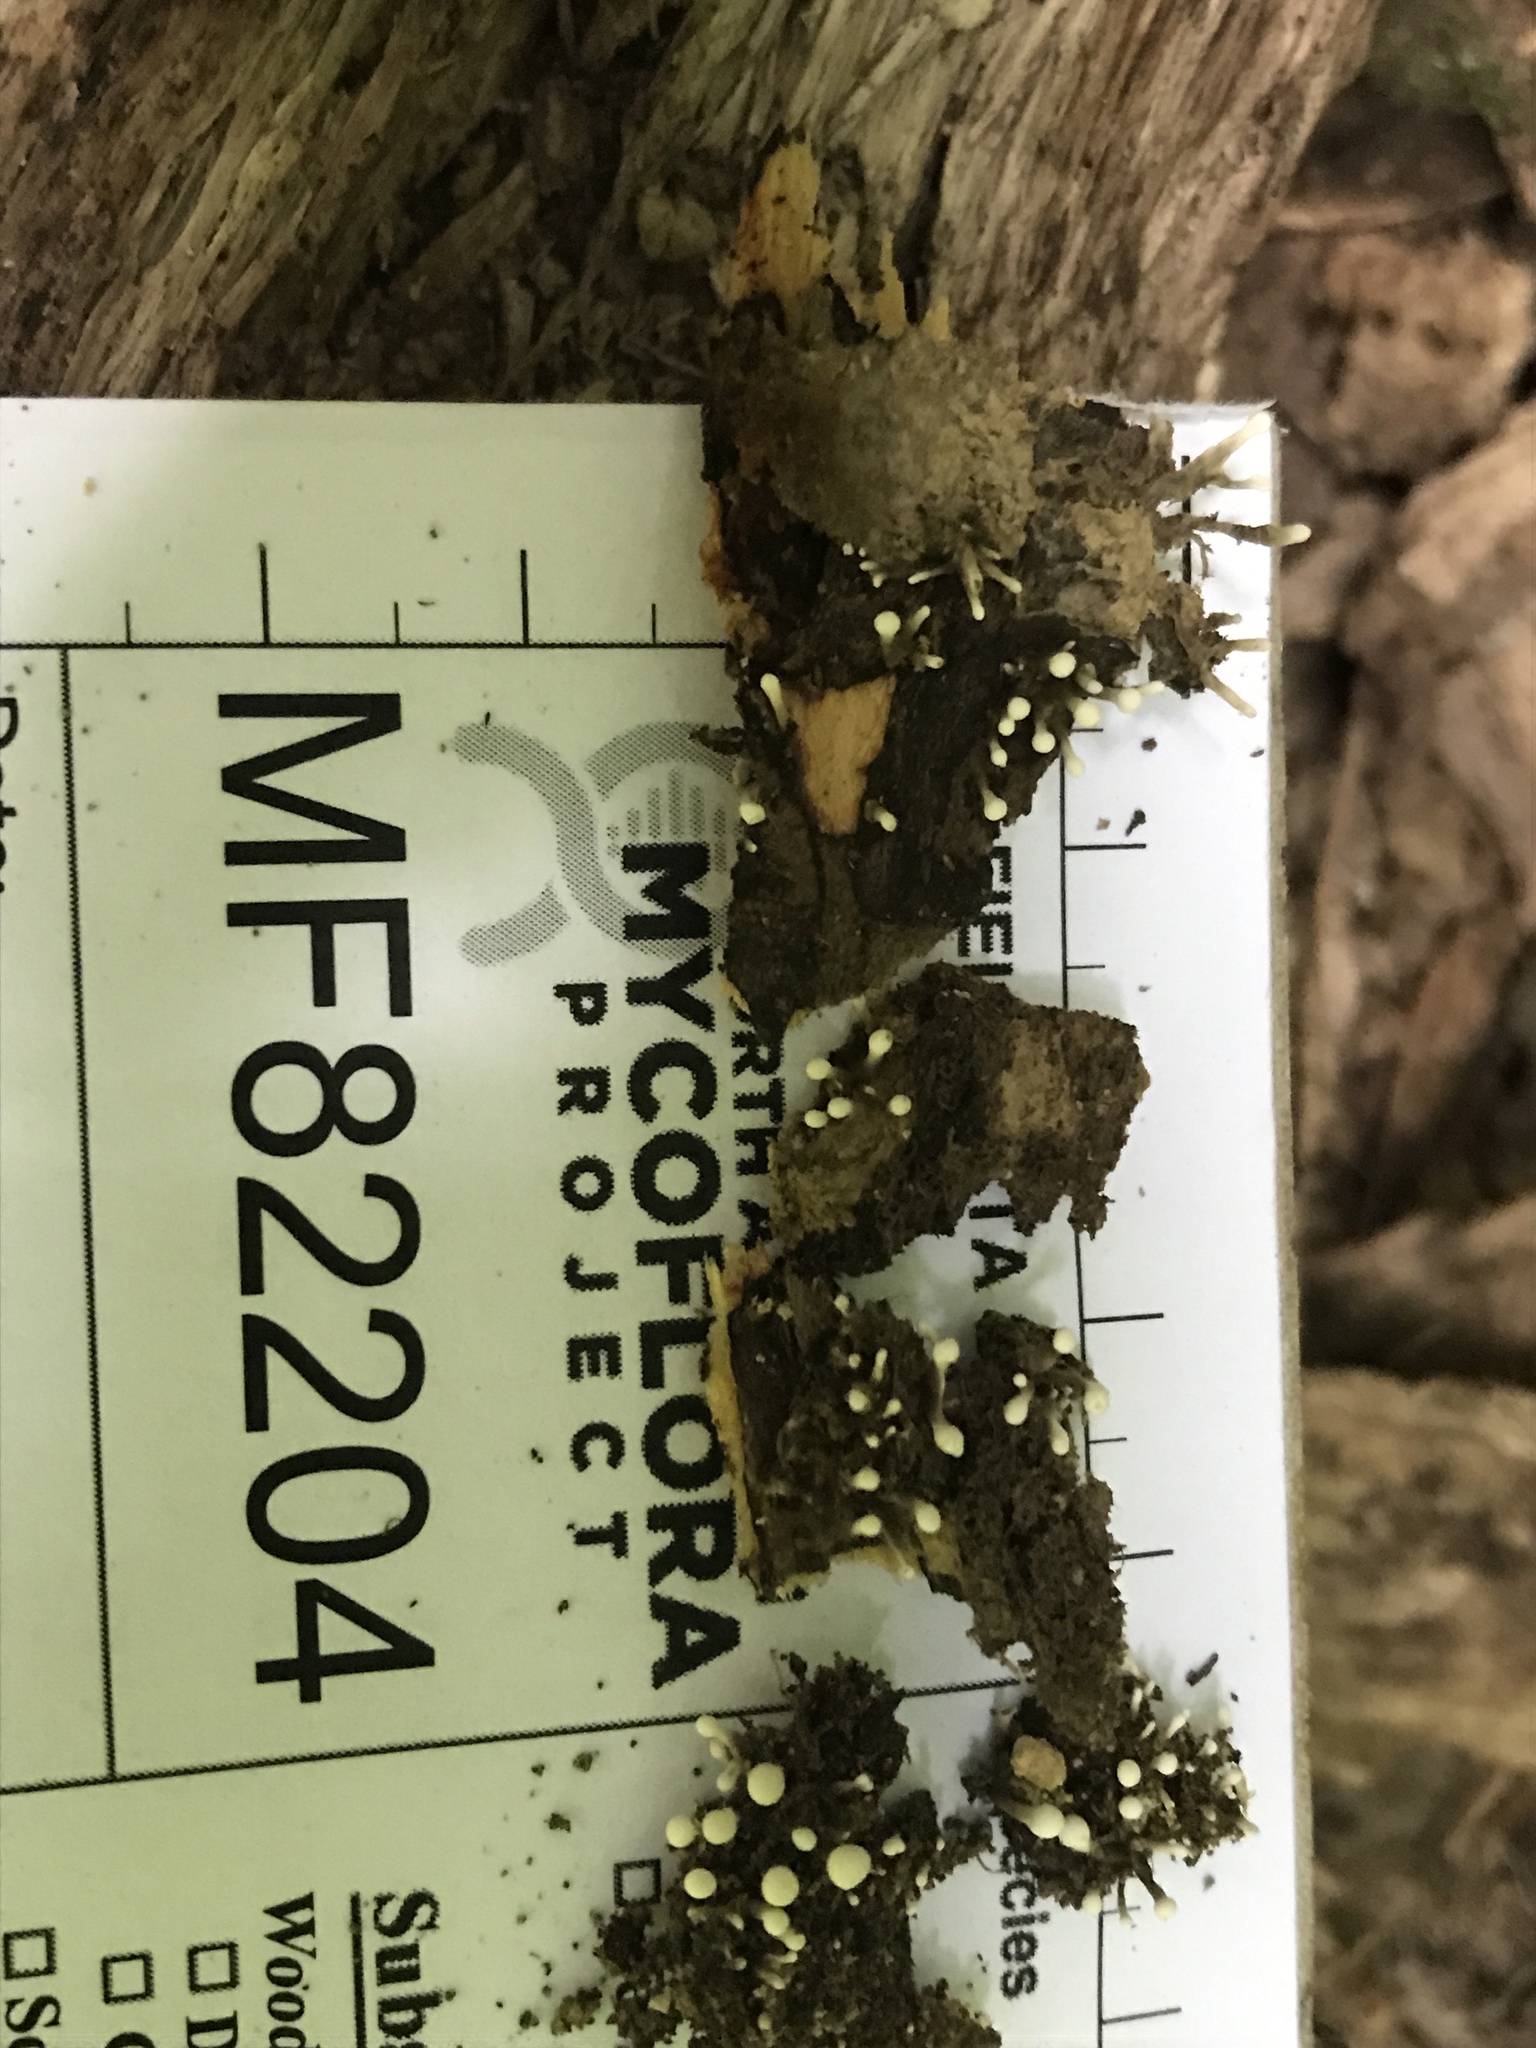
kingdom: Fungi
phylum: Basidiomycota
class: Atractiellomycetes
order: Atractiellales
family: Phleogenaceae
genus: Phleogena
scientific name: Phleogena faginea
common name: Fenugreek stalkball
